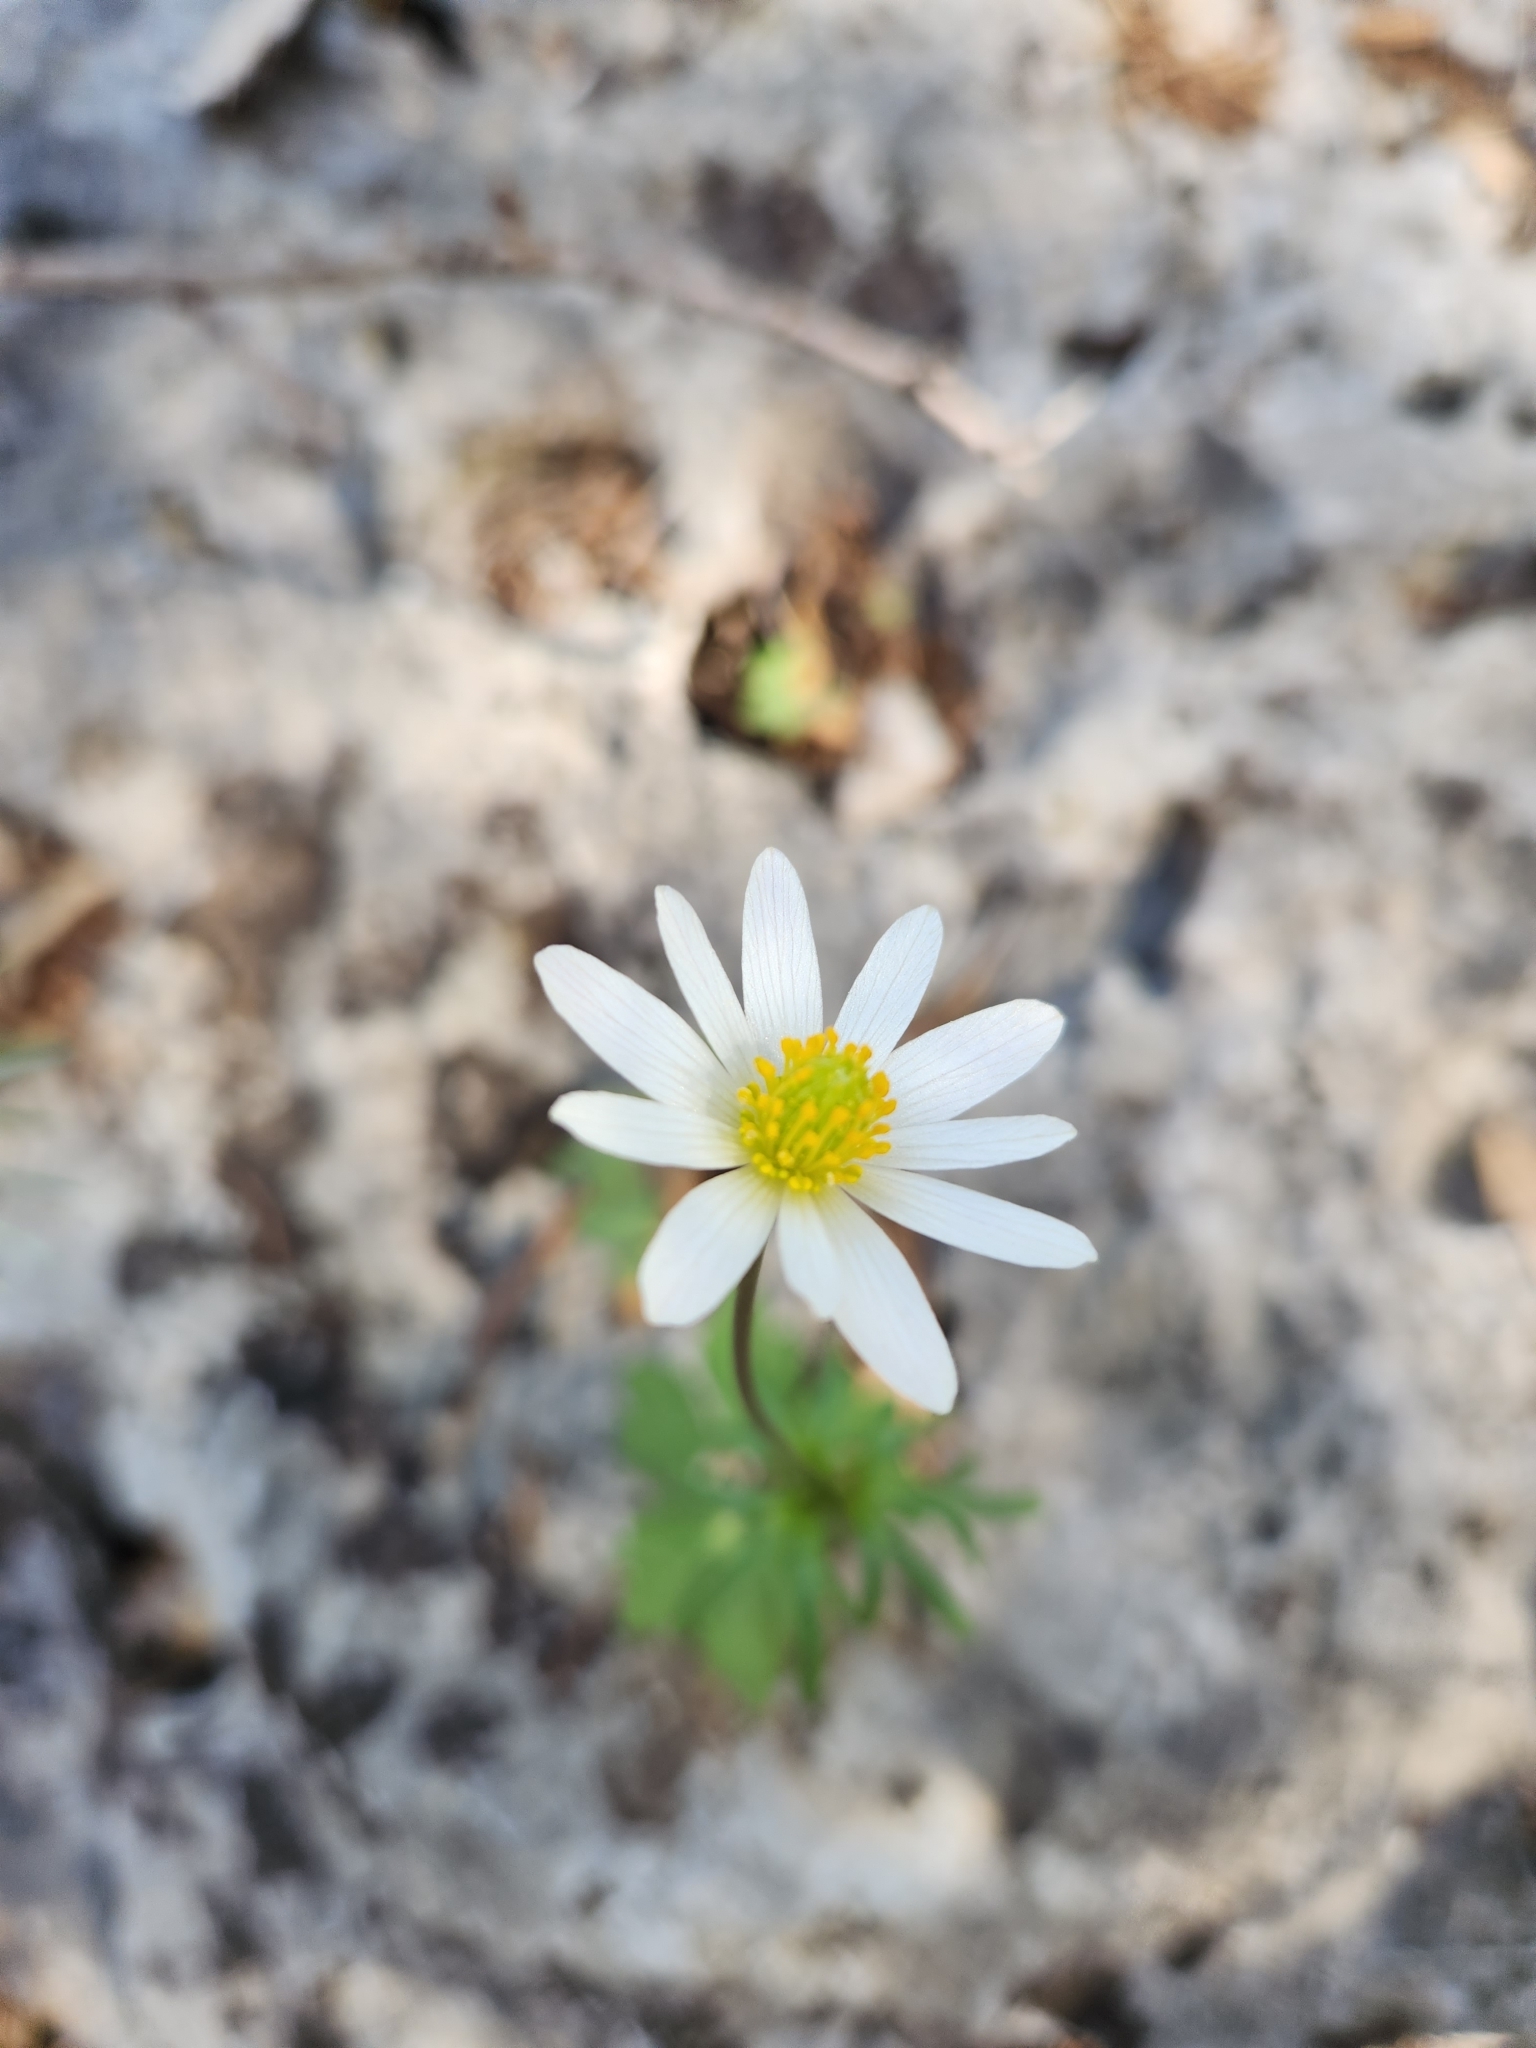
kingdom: Plantae
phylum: Tracheophyta
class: Magnoliopsida
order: Ranunculales
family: Ranunculaceae
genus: Anemone
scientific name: Anemone edwardsiana
